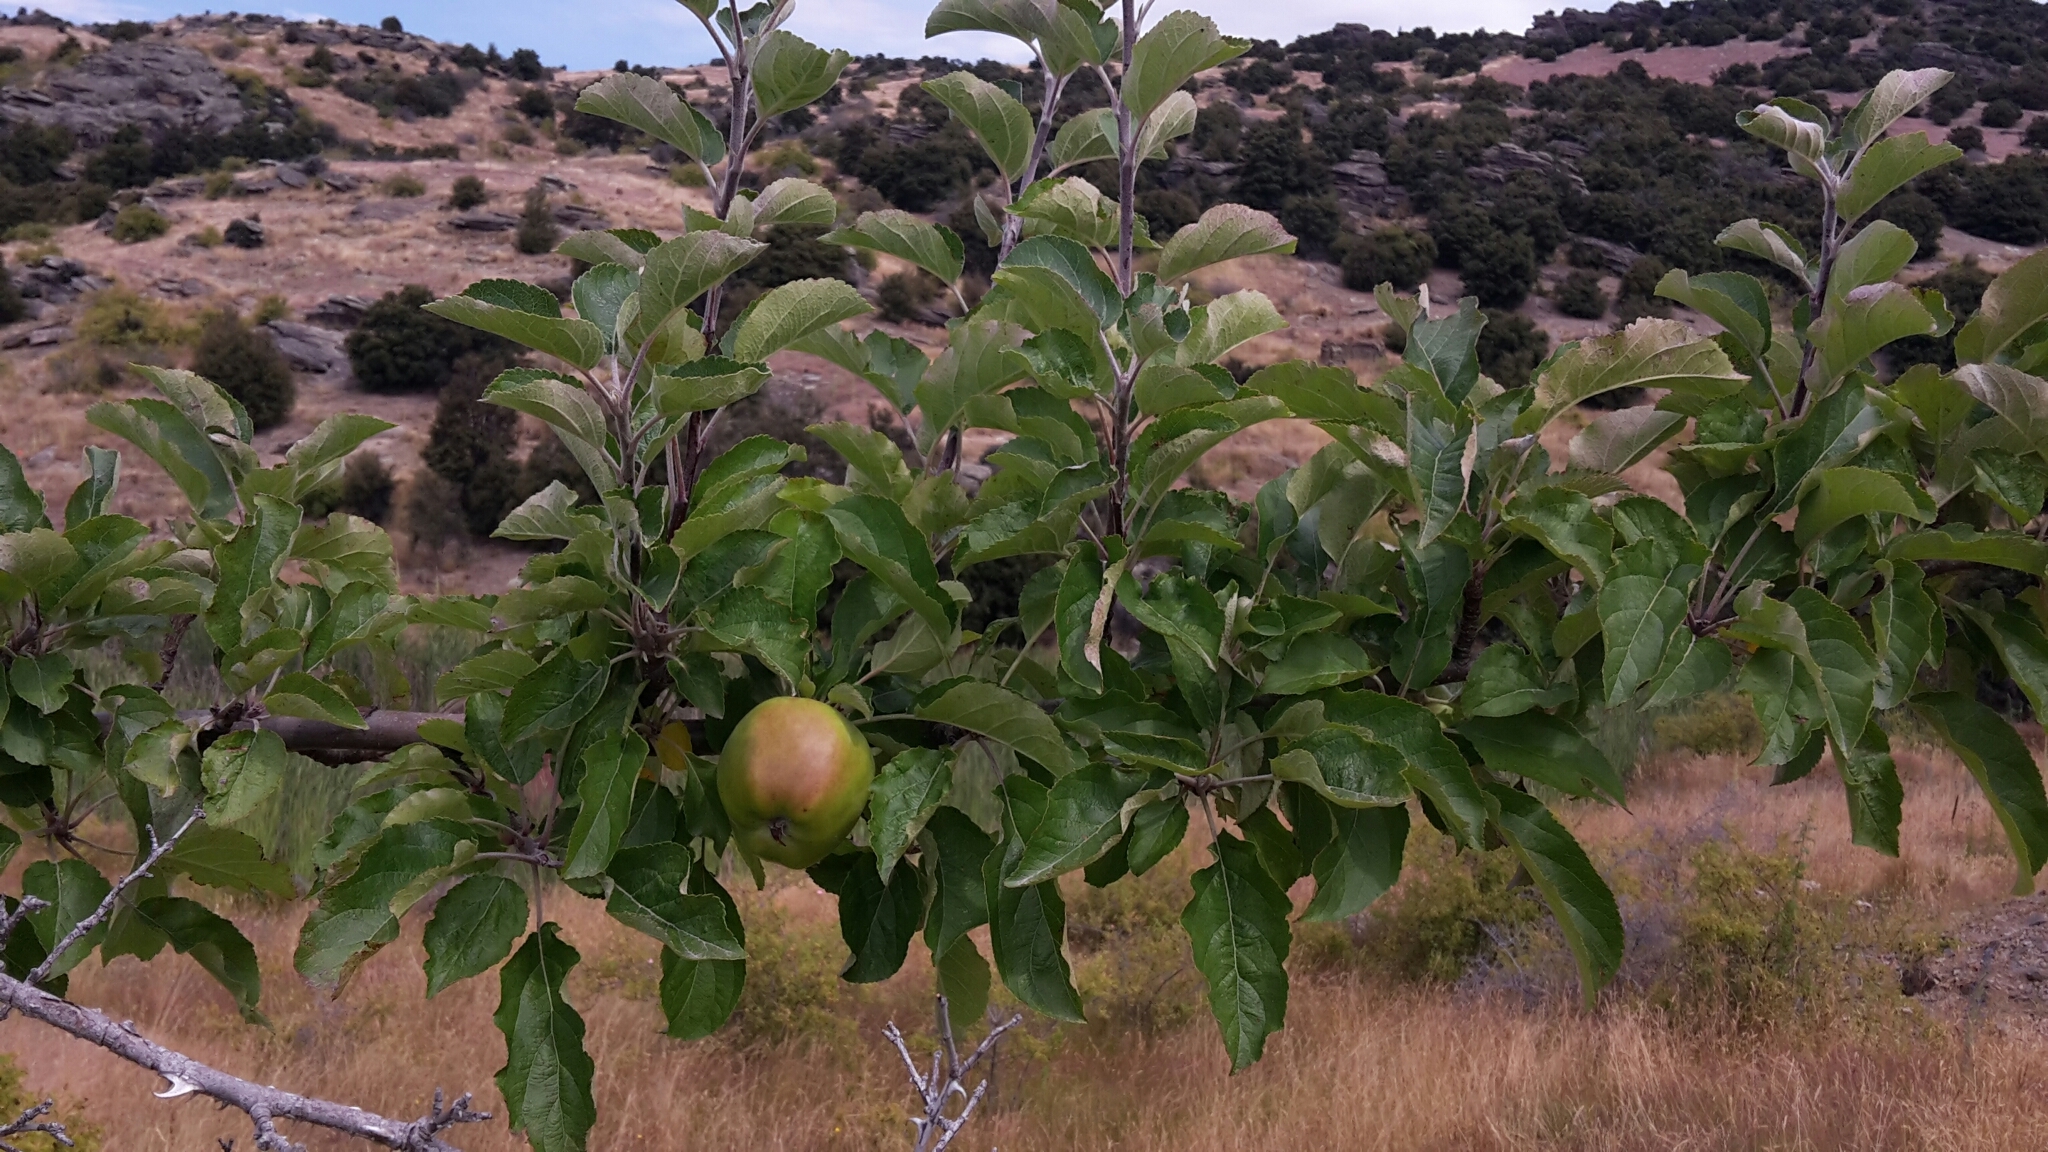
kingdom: Plantae
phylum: Tracheophyta
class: Magnoliopsida
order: Rosales
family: Rosaceae
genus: Malus
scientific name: Malus domestica
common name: Apple
